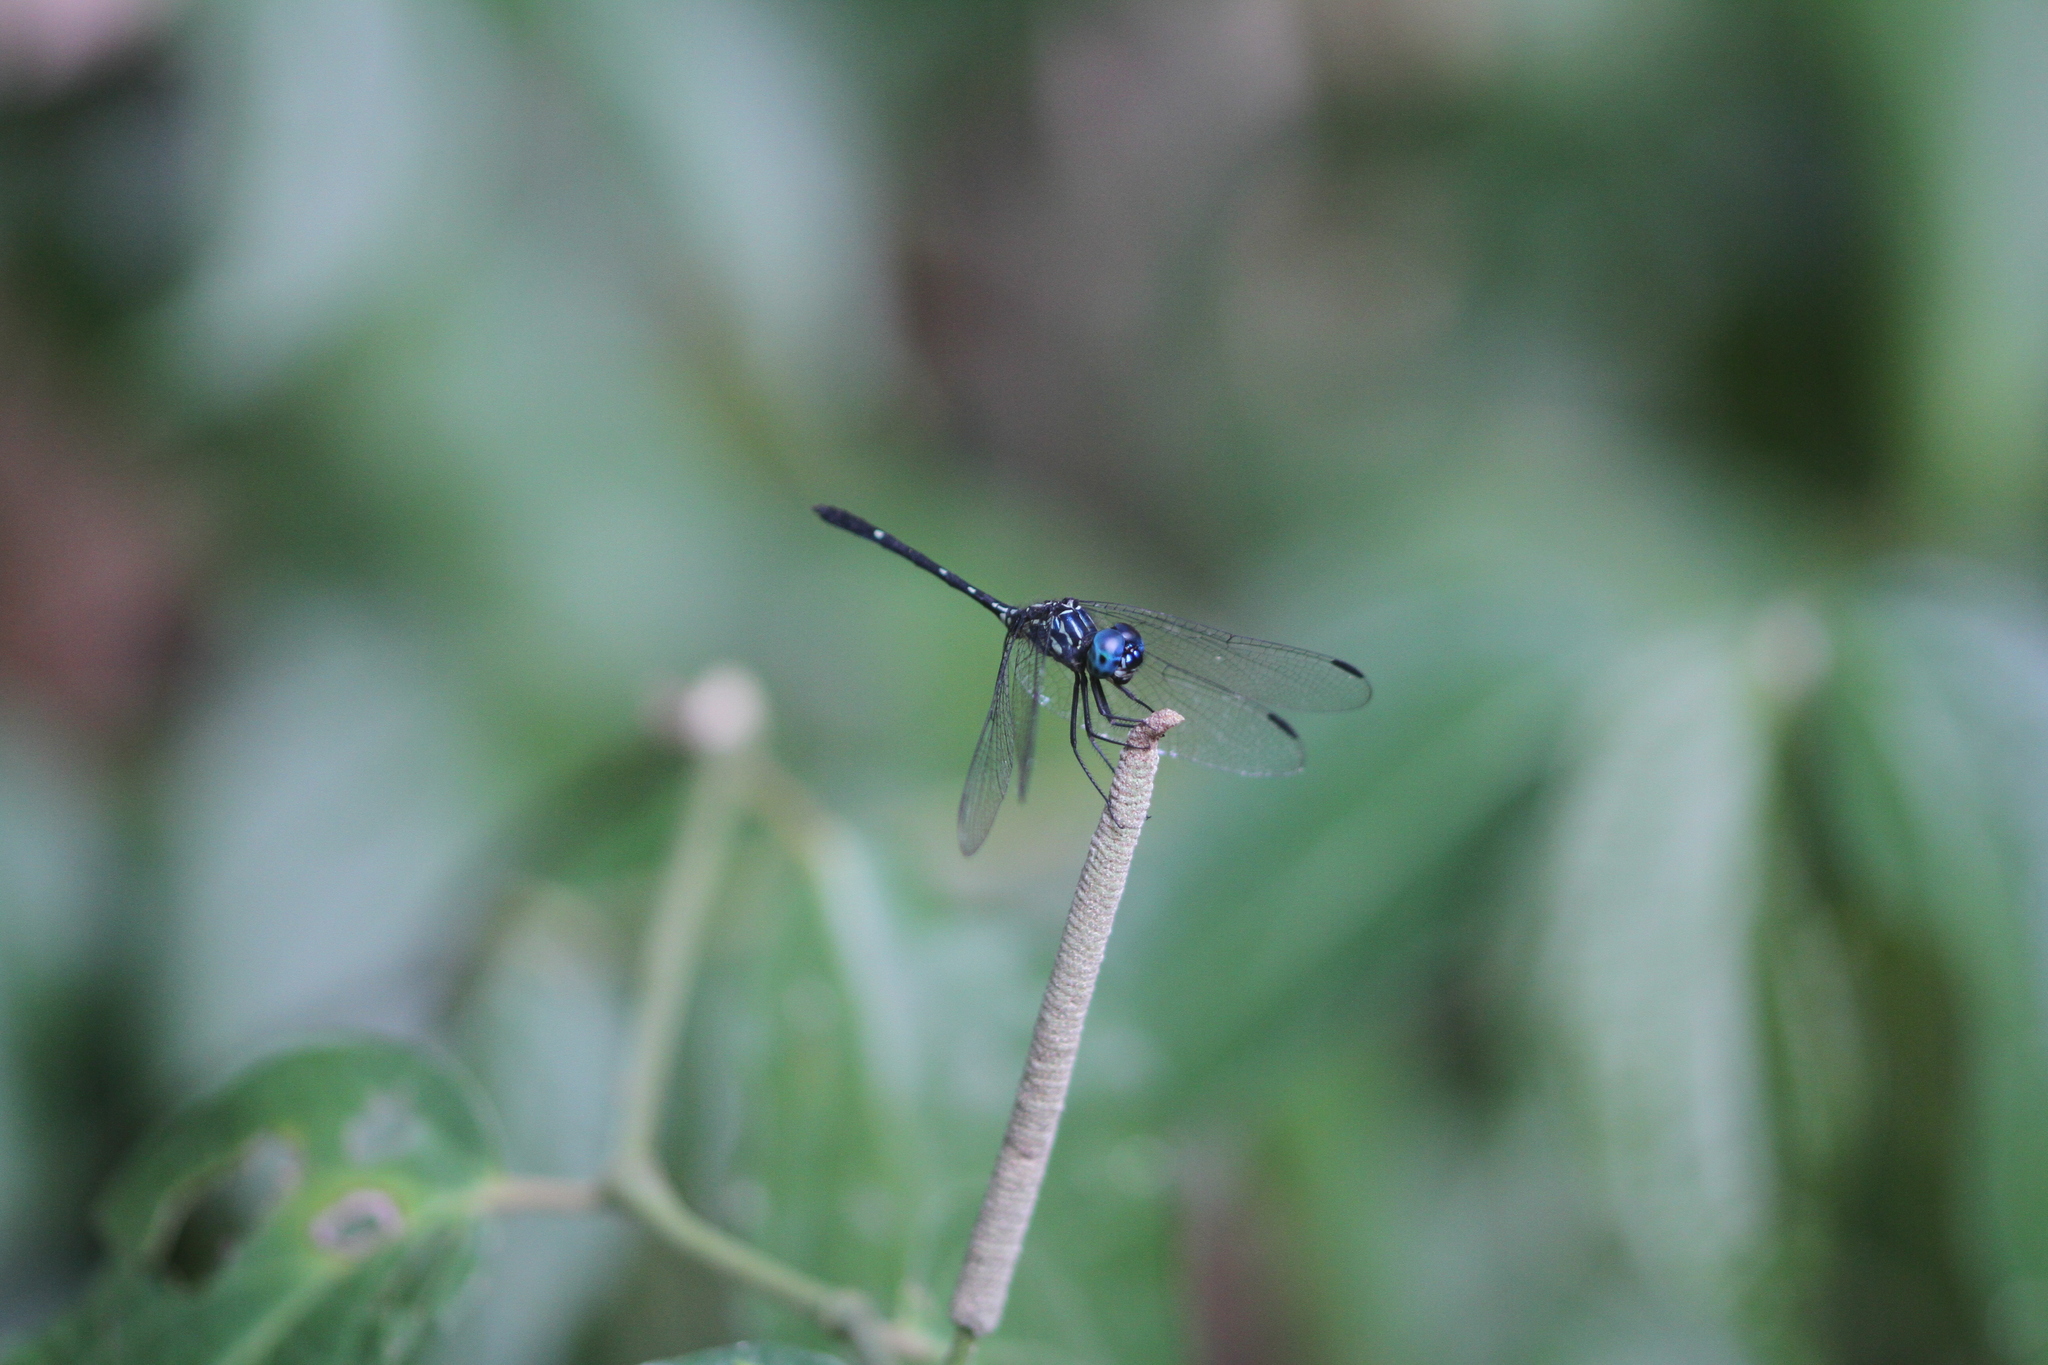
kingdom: Animalia
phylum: Arthropoda
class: Insecta
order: Odonata
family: Libellulidae
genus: Dythemis
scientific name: Dythemis nigra
